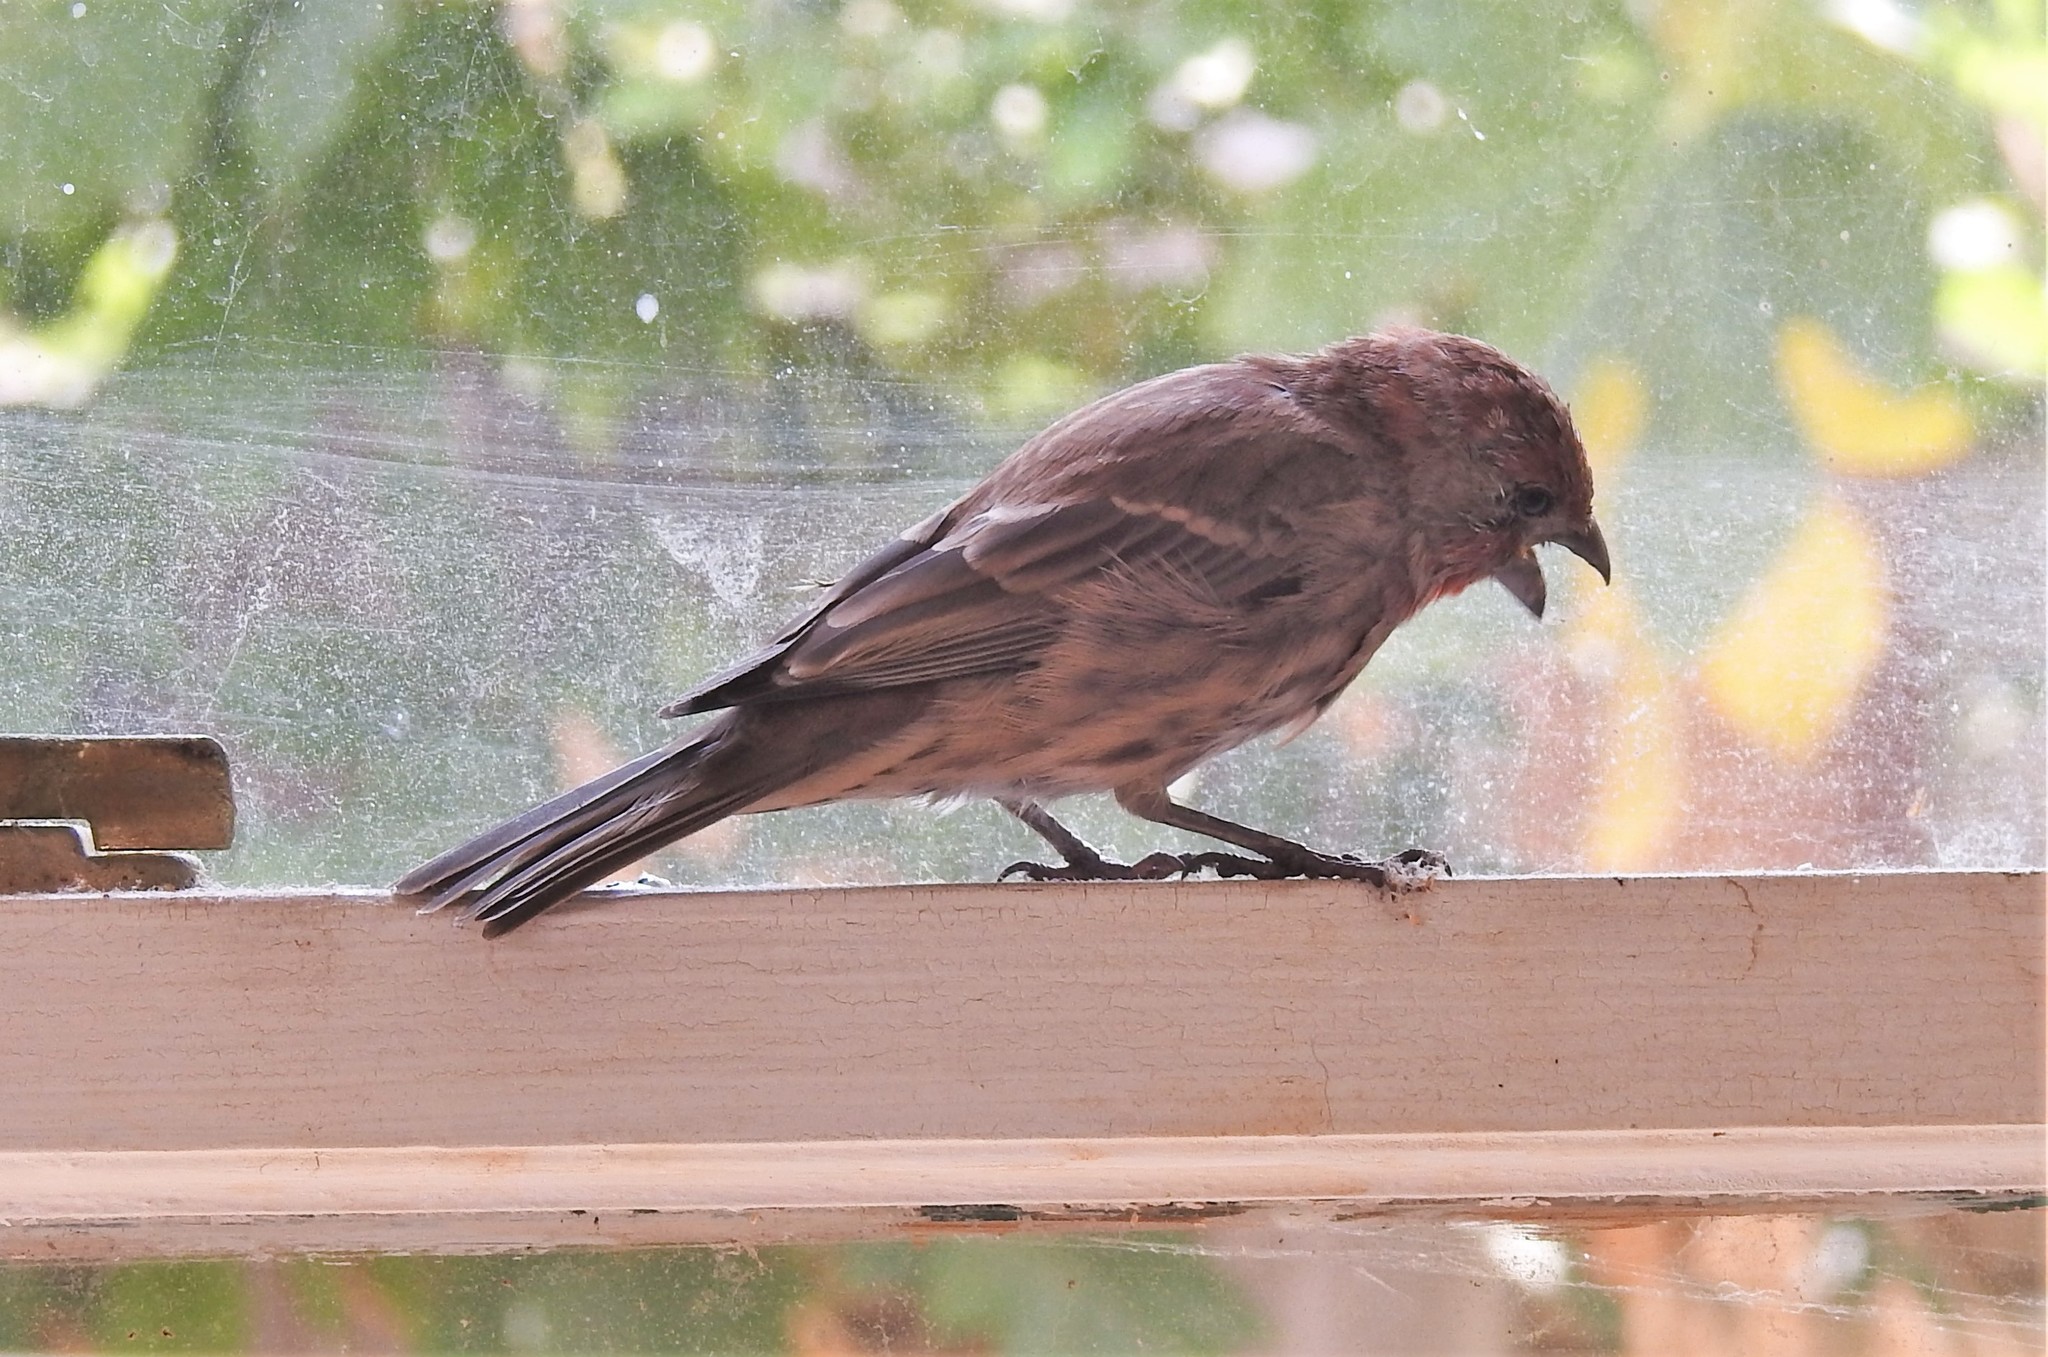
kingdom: Animalia
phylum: Chordata
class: Aves
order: Passeriformes
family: Fringillidae
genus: Haemorhous
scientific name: Haemorhous mexicanus
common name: House finch
